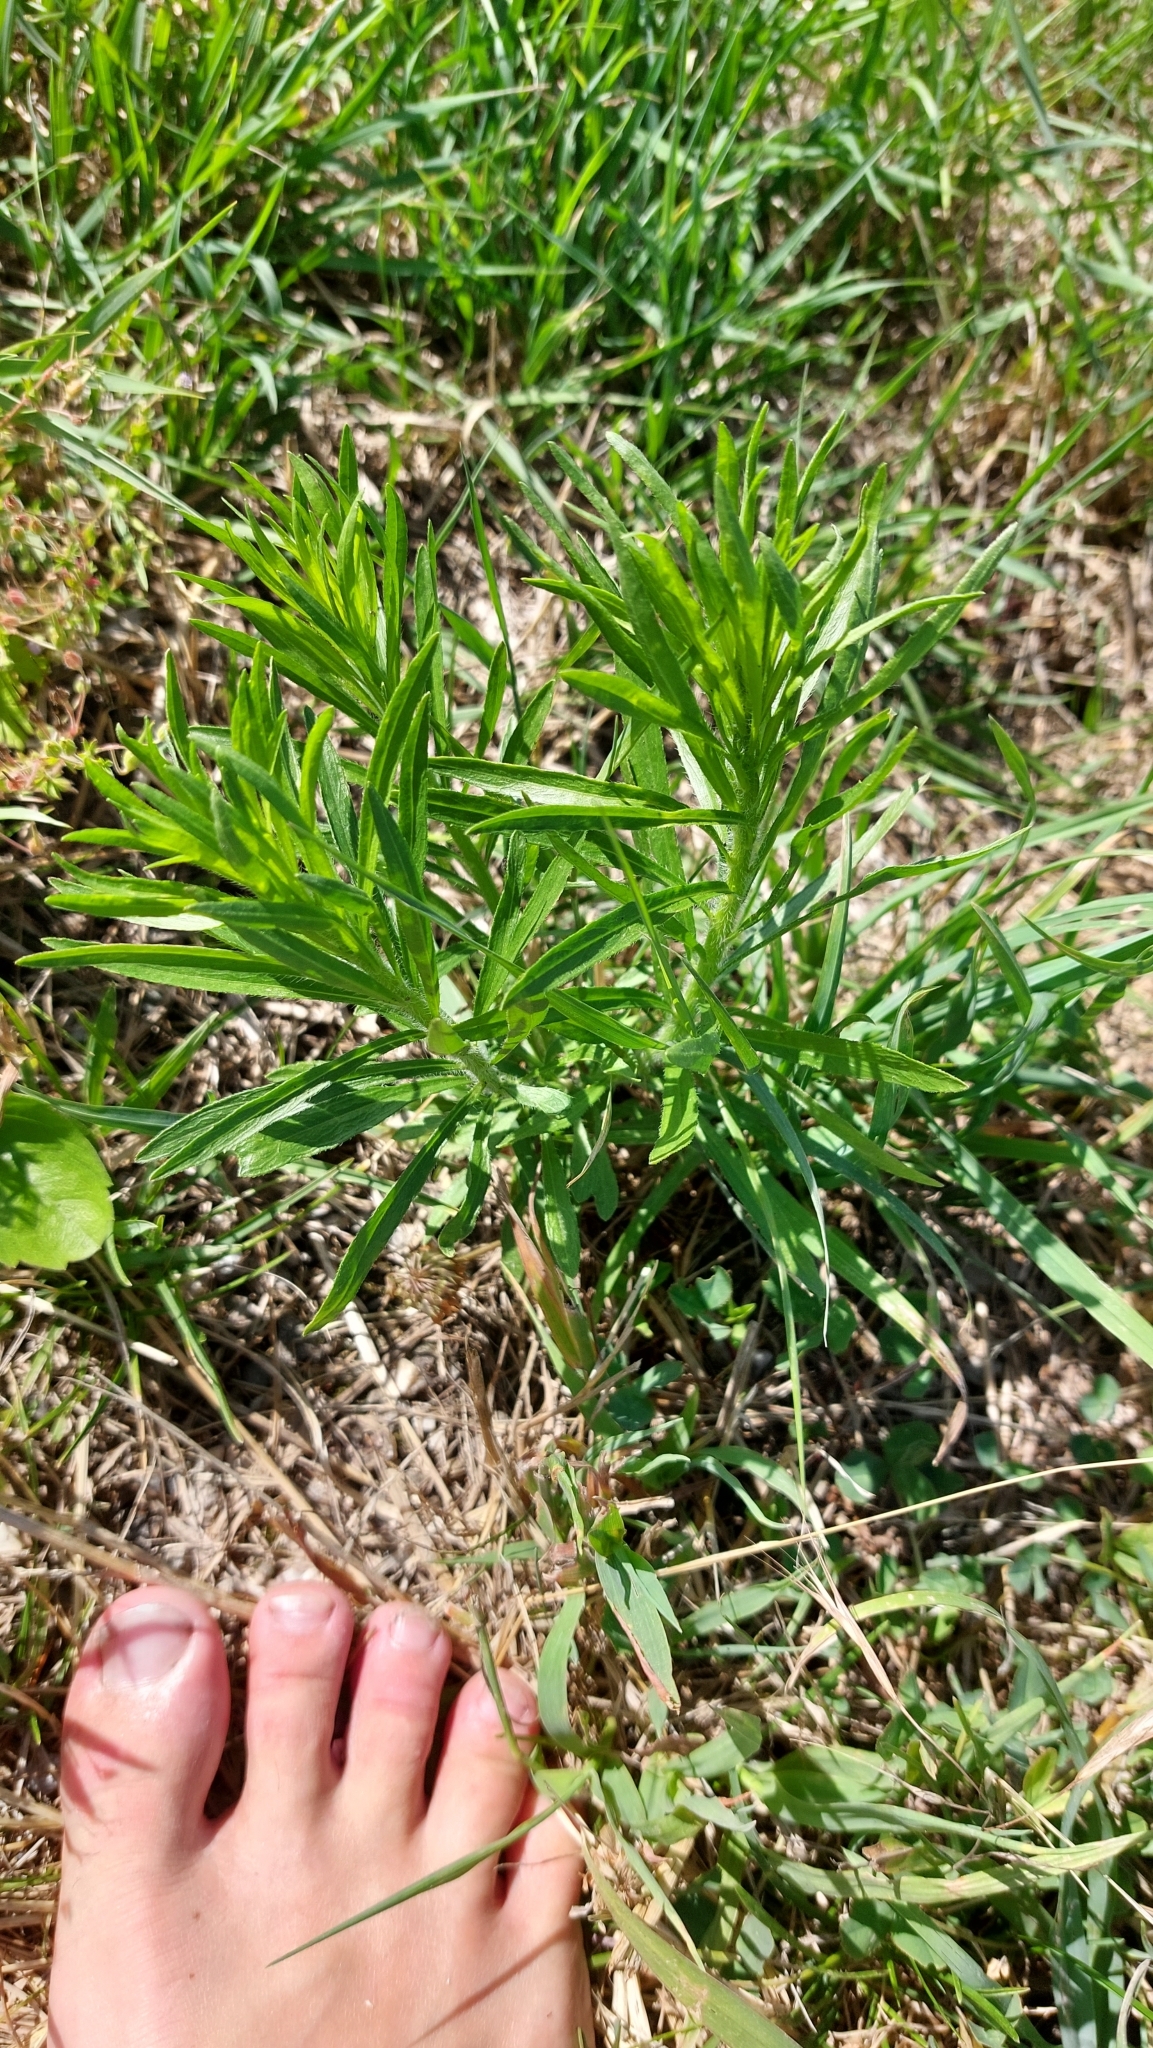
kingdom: Plantae
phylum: Tracheophyta
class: Magnoliopsida
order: Asterales
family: Asteraceae
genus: Erigeron
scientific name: Erigeron canadensis
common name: Canadian fleabane
